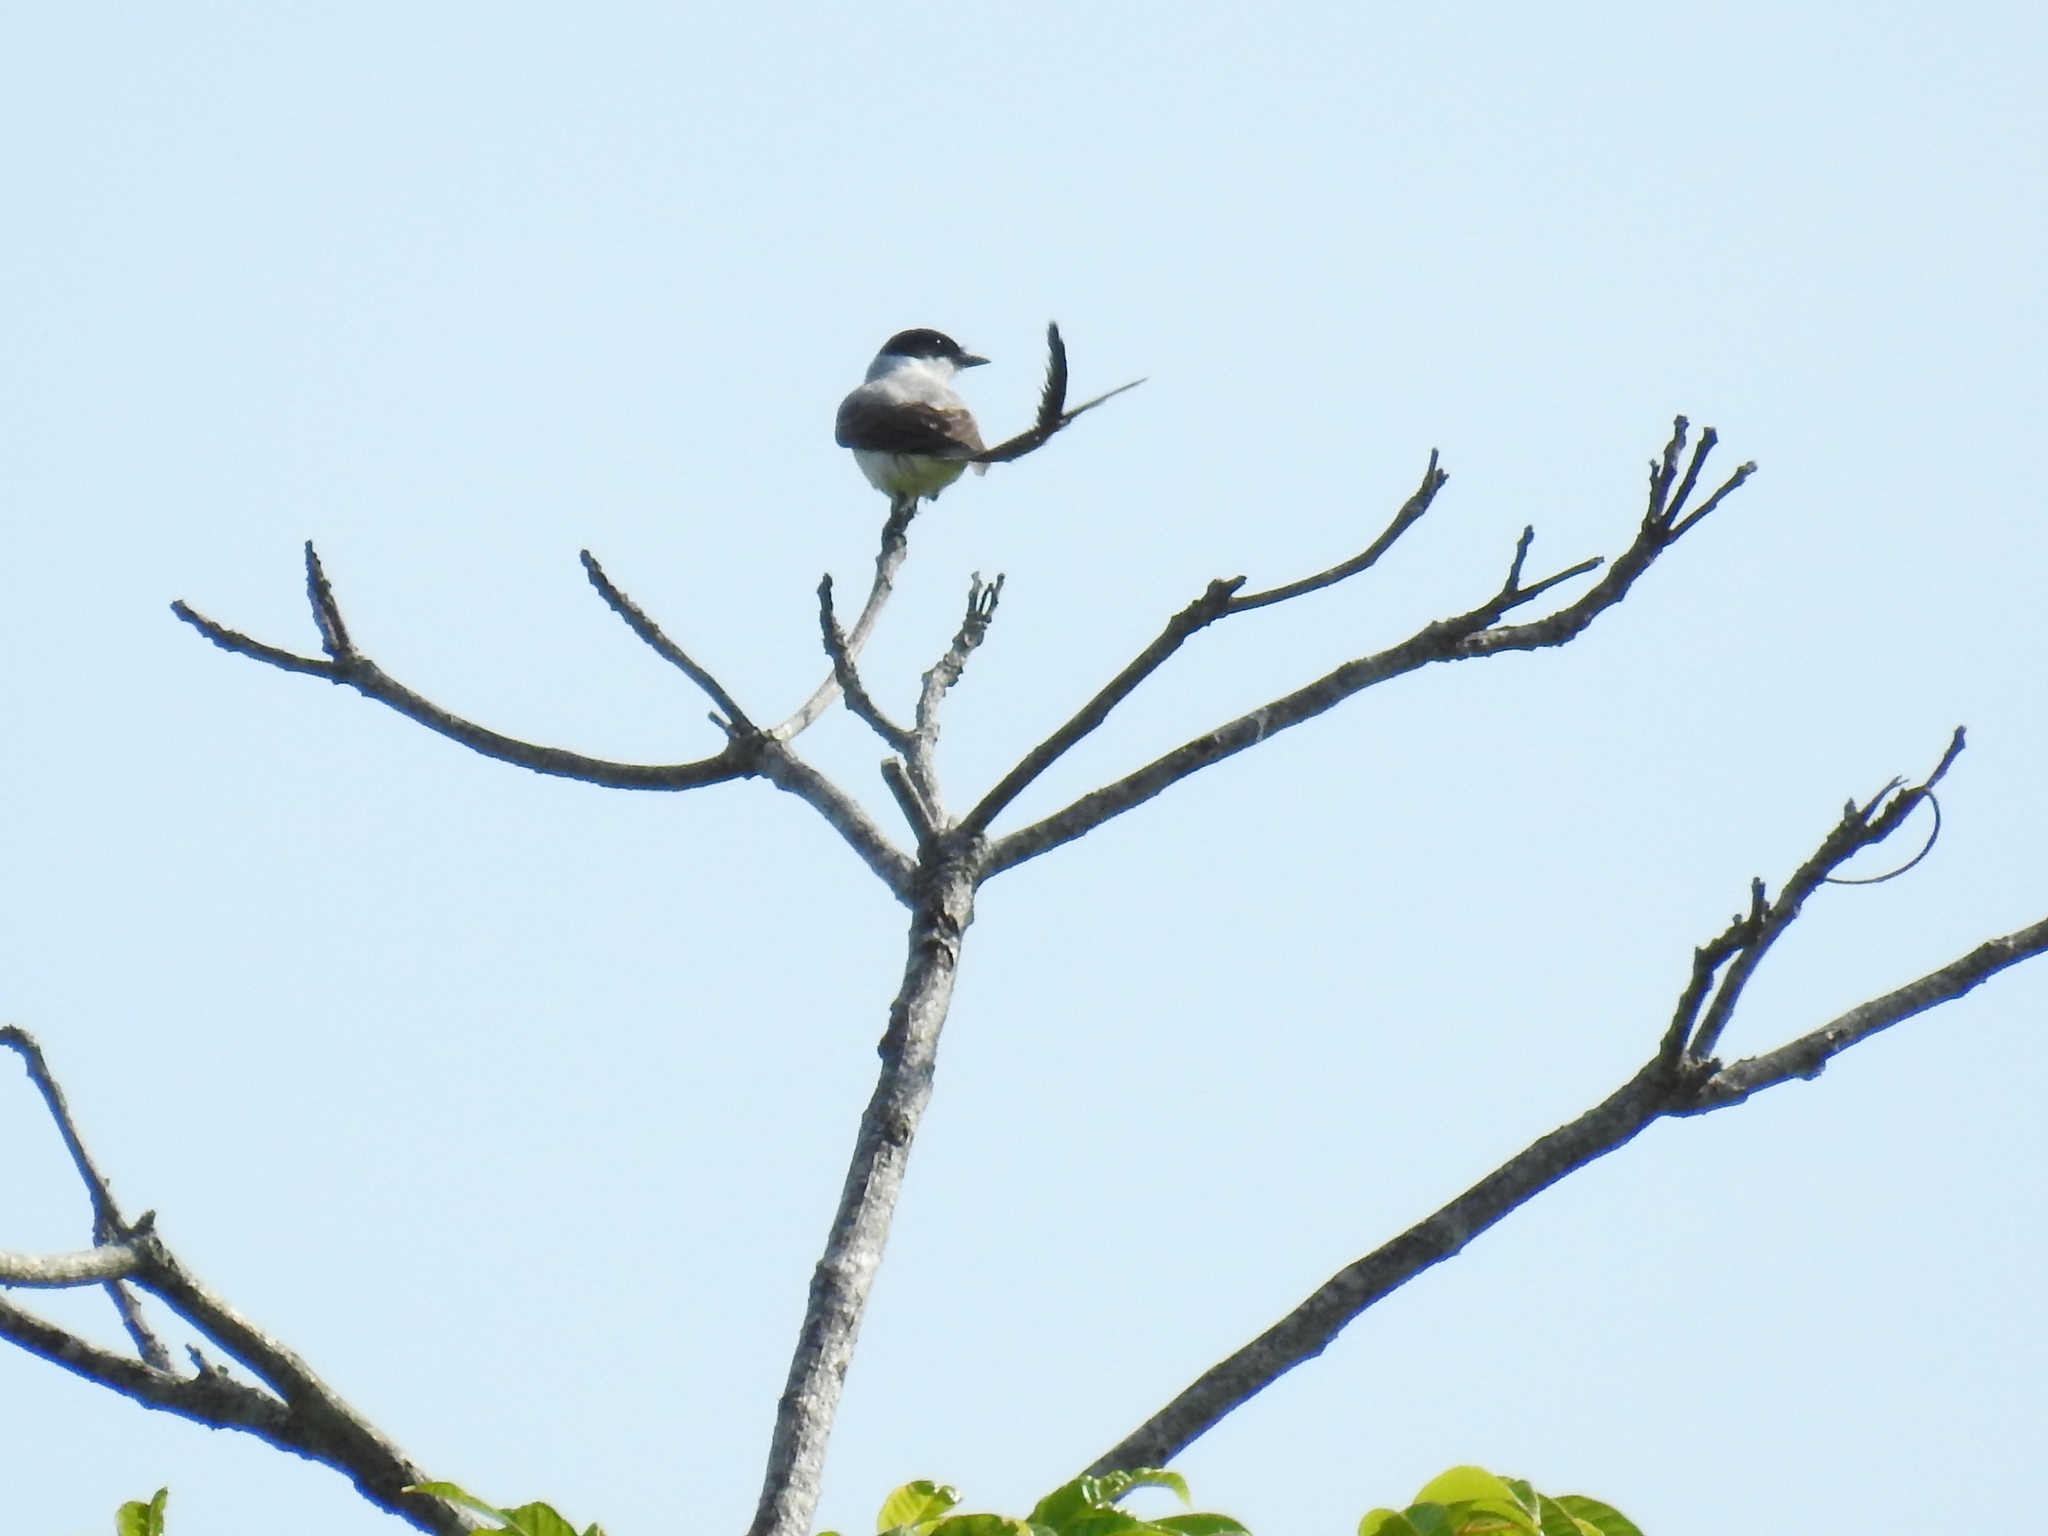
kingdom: Animalia
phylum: Chordata
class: Aves
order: Passeriformes
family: Tyrannidae
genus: Tyrannus
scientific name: Tyrannus savana
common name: Fork-tailed flycatcher
